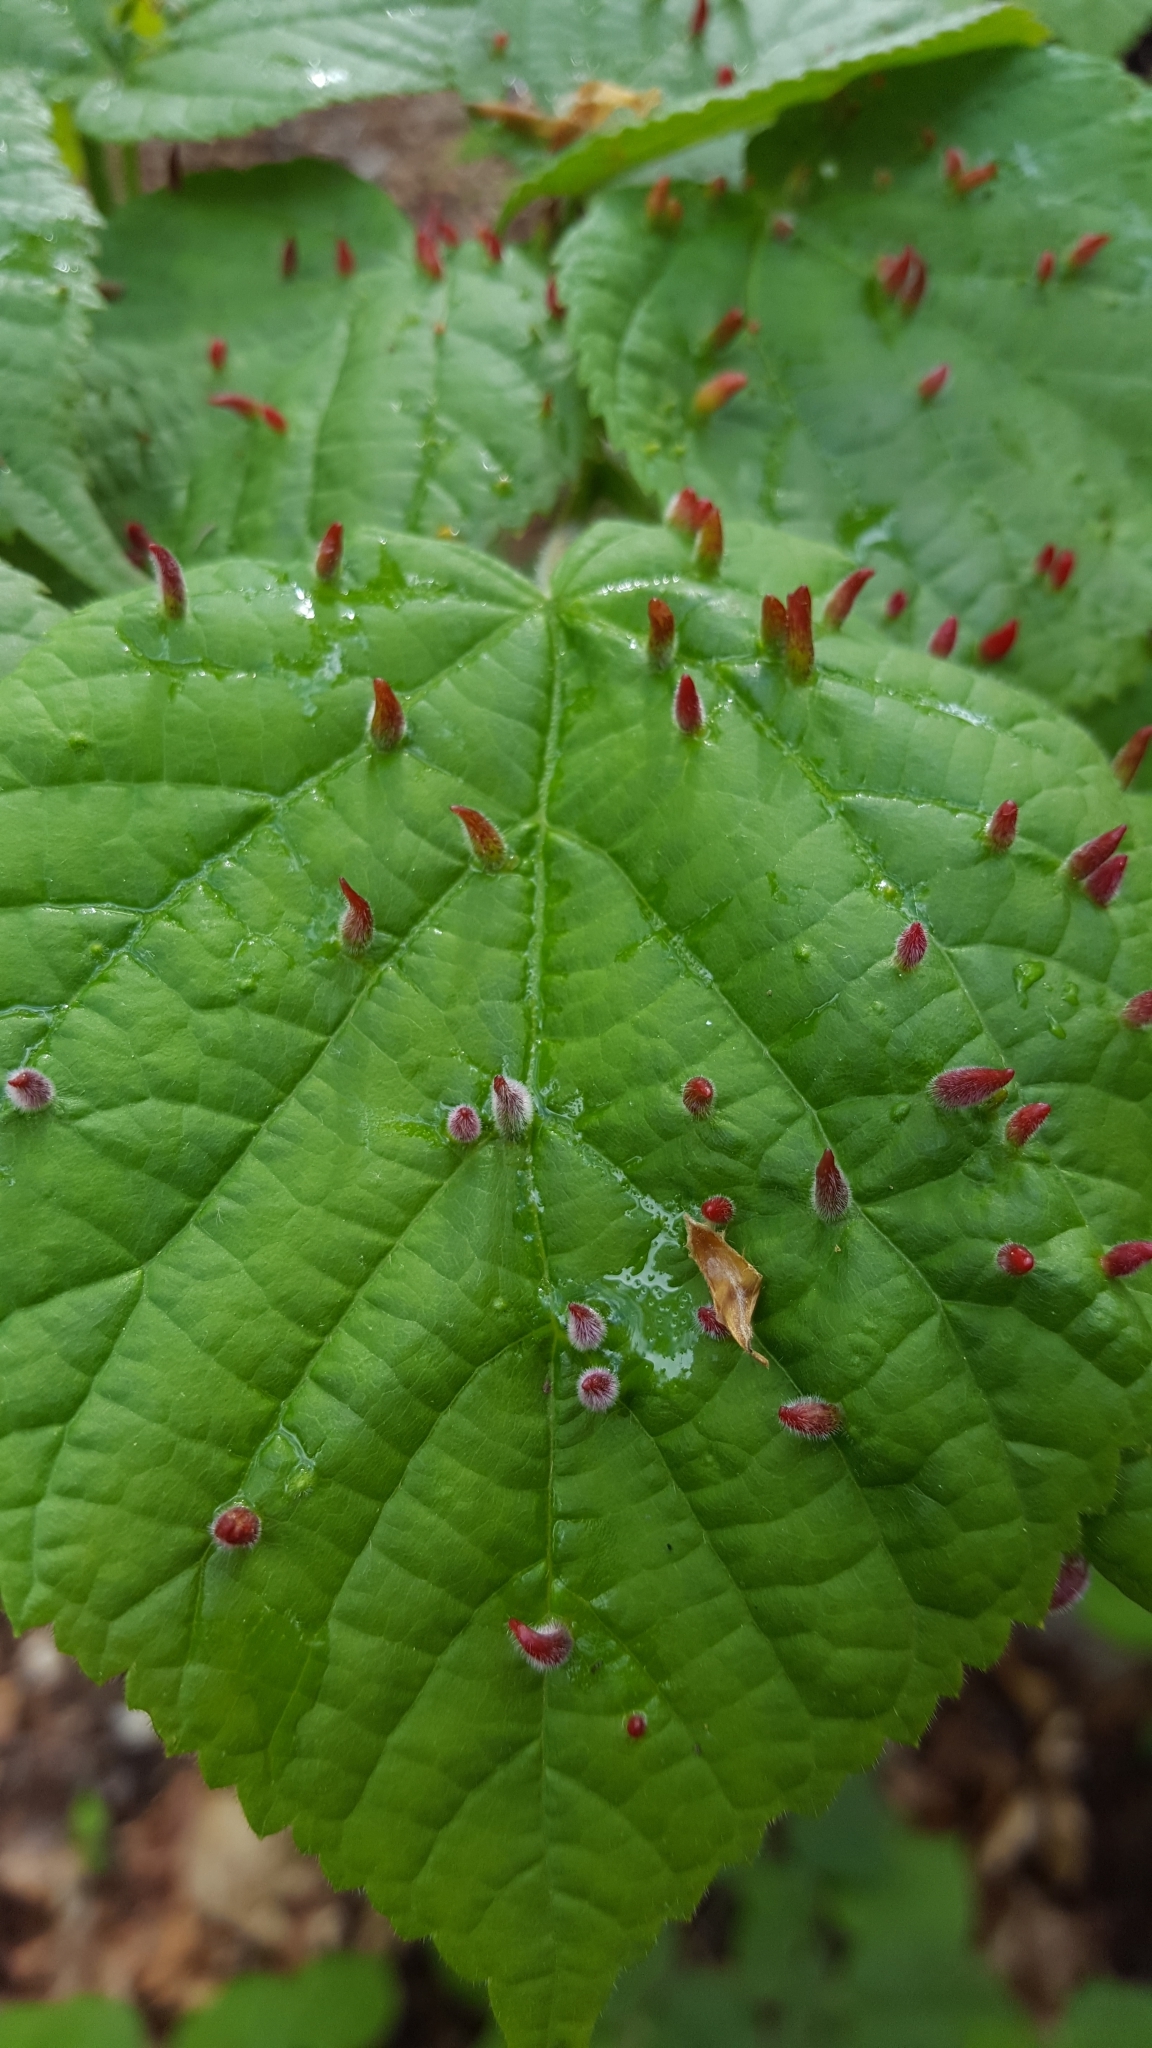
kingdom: Animalia
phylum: Arthropoda
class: Arachnida
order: Trombidiformes
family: Eriophyidae
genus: Eriophyes
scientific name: Eriophyes tiliae
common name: Red nail gall mite
